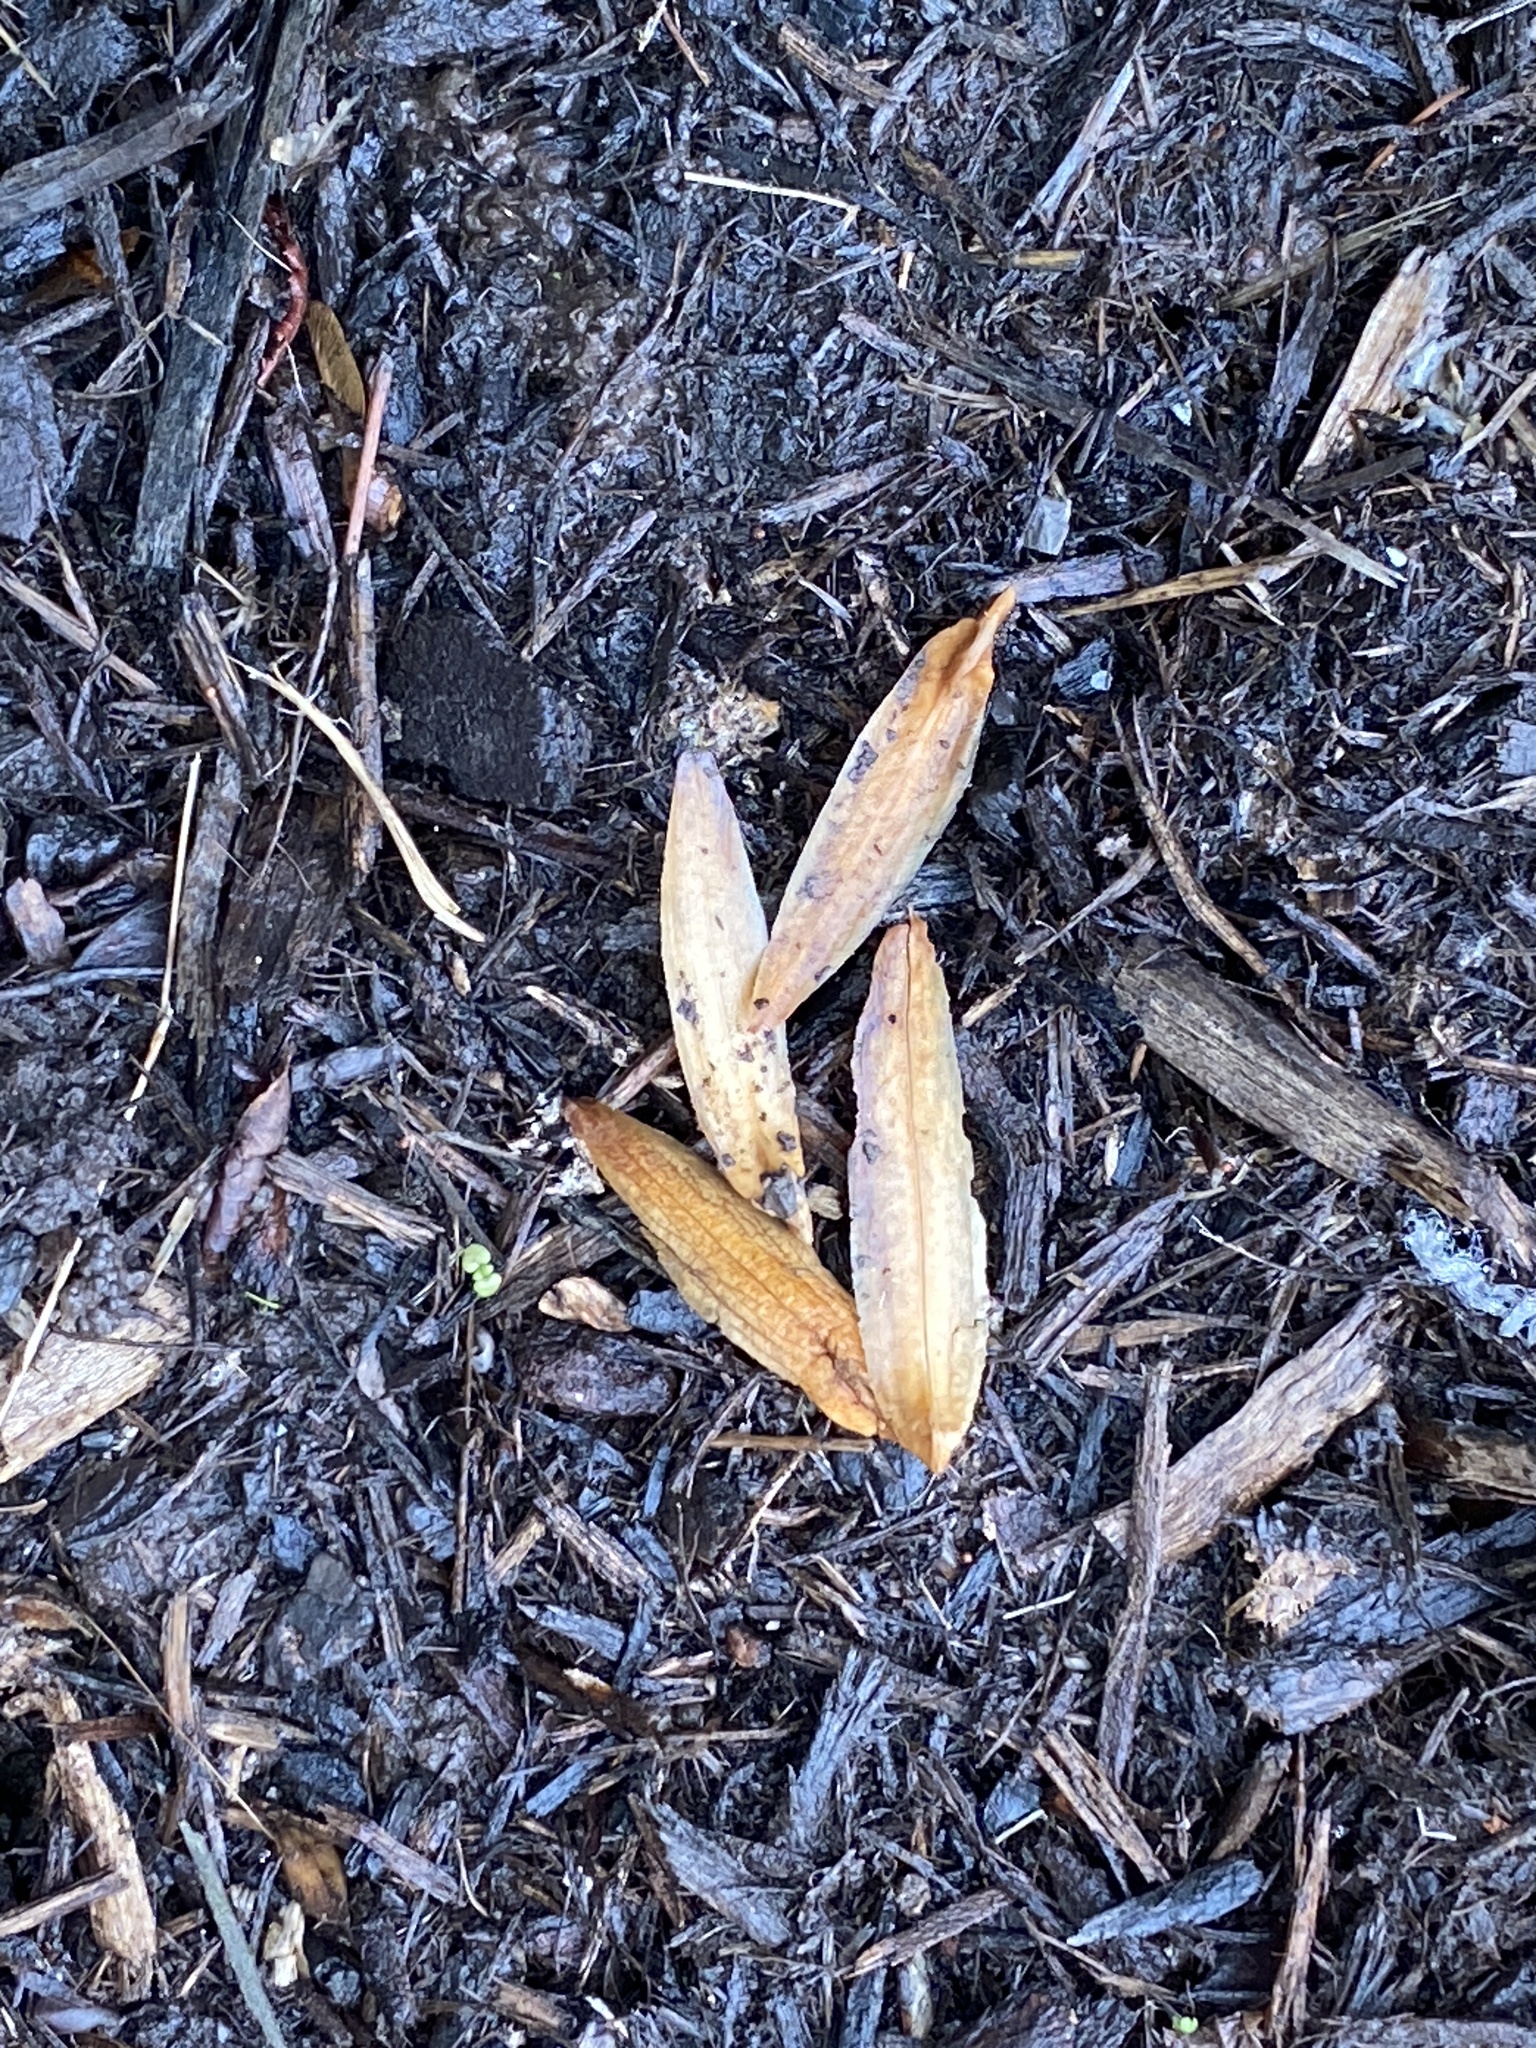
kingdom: Plantae
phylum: Tracheophyta
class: Magnoliopsida
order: Magnoliales
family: Magnoliaceae
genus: Liriodendron
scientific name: Liriodendron tulipifera
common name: Tulip tree
